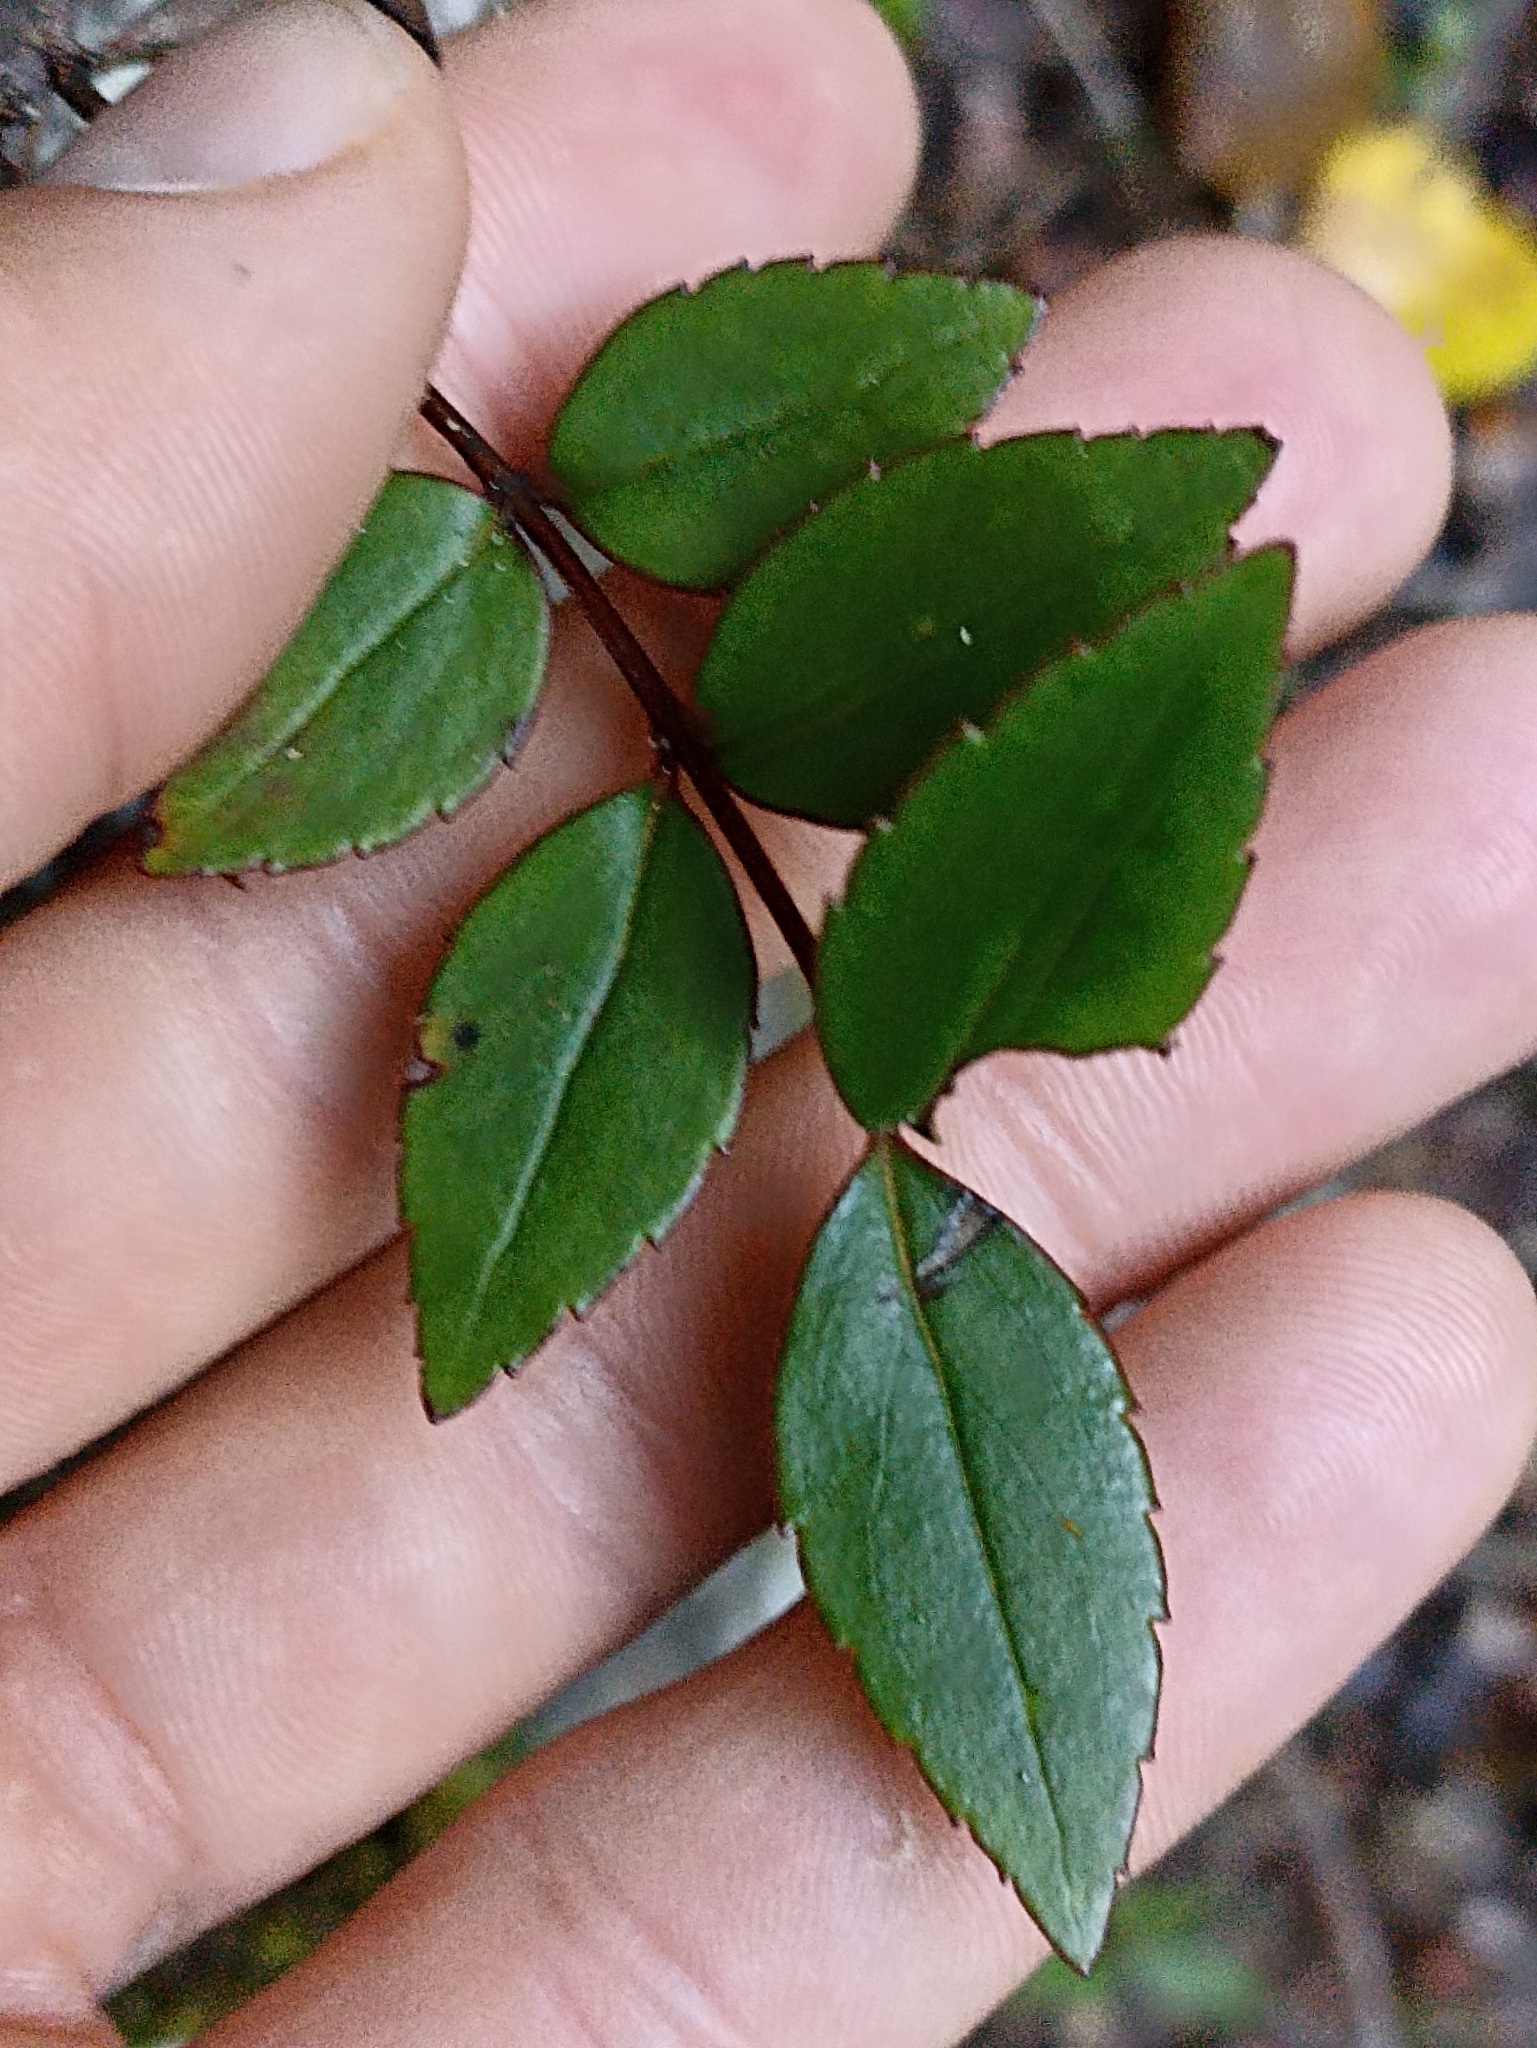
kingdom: Plantae
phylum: Tracheophyta
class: Magnoliopsida
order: Lamiales
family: Plantaginaceae
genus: Veronica
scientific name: Veronica lanceolata
